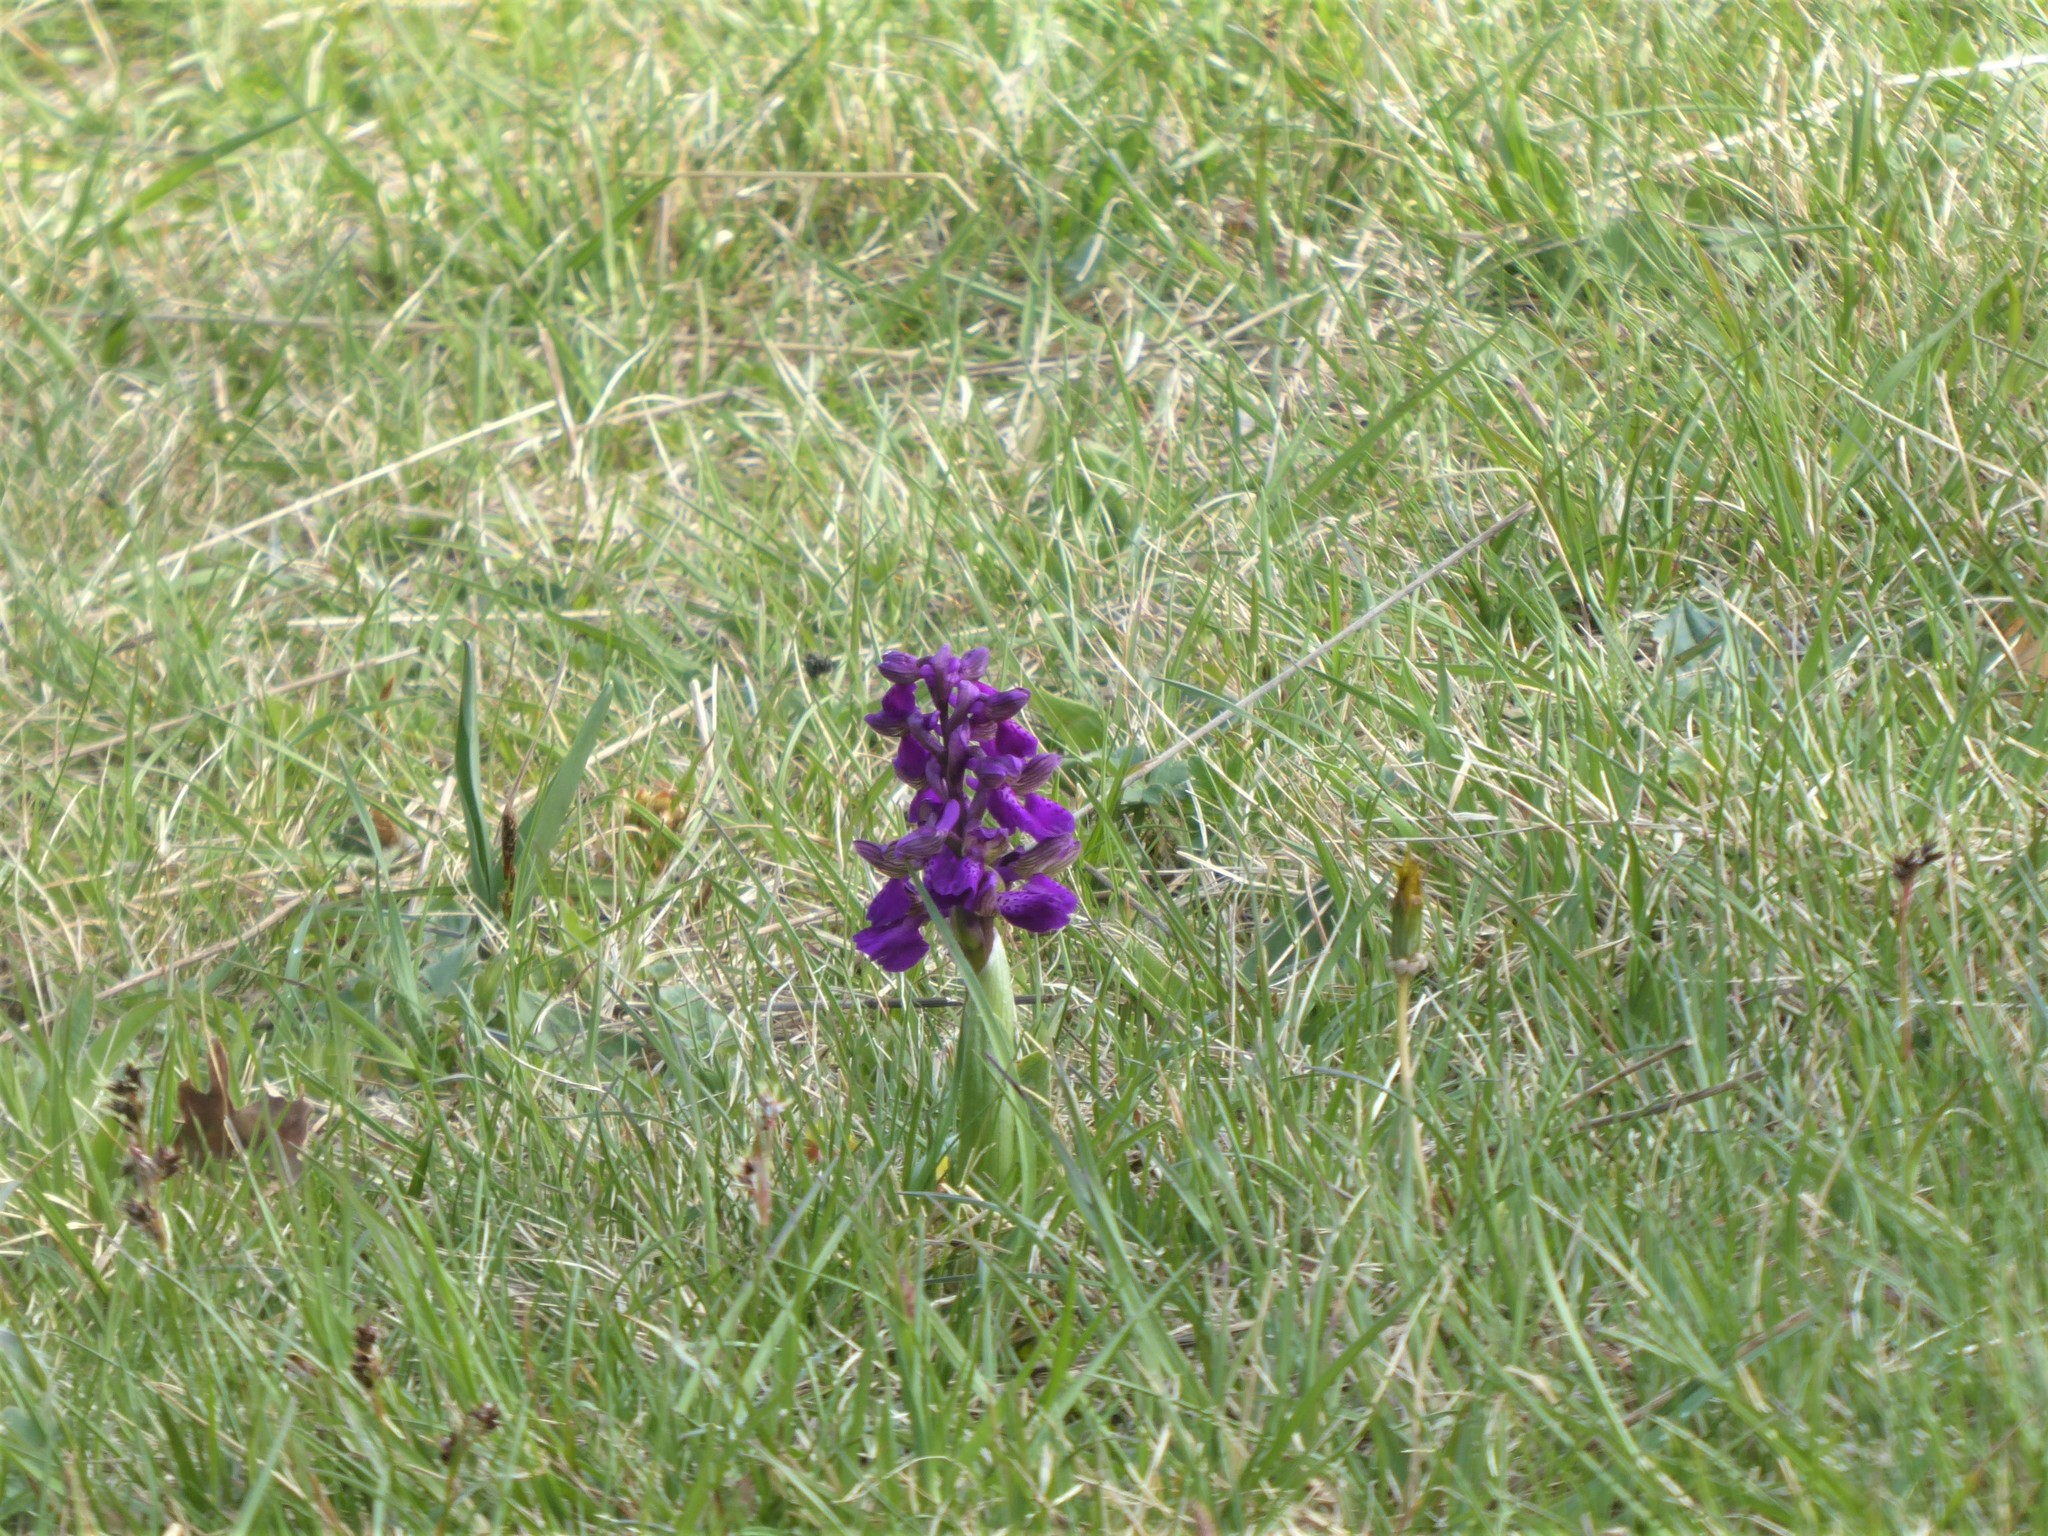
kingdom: Plantae
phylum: Tracheophyta
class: Liliopsida
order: Asparagales
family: Orchidaceae
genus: Anacamptis
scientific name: Anacamptis morio
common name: Green-winged orchid
